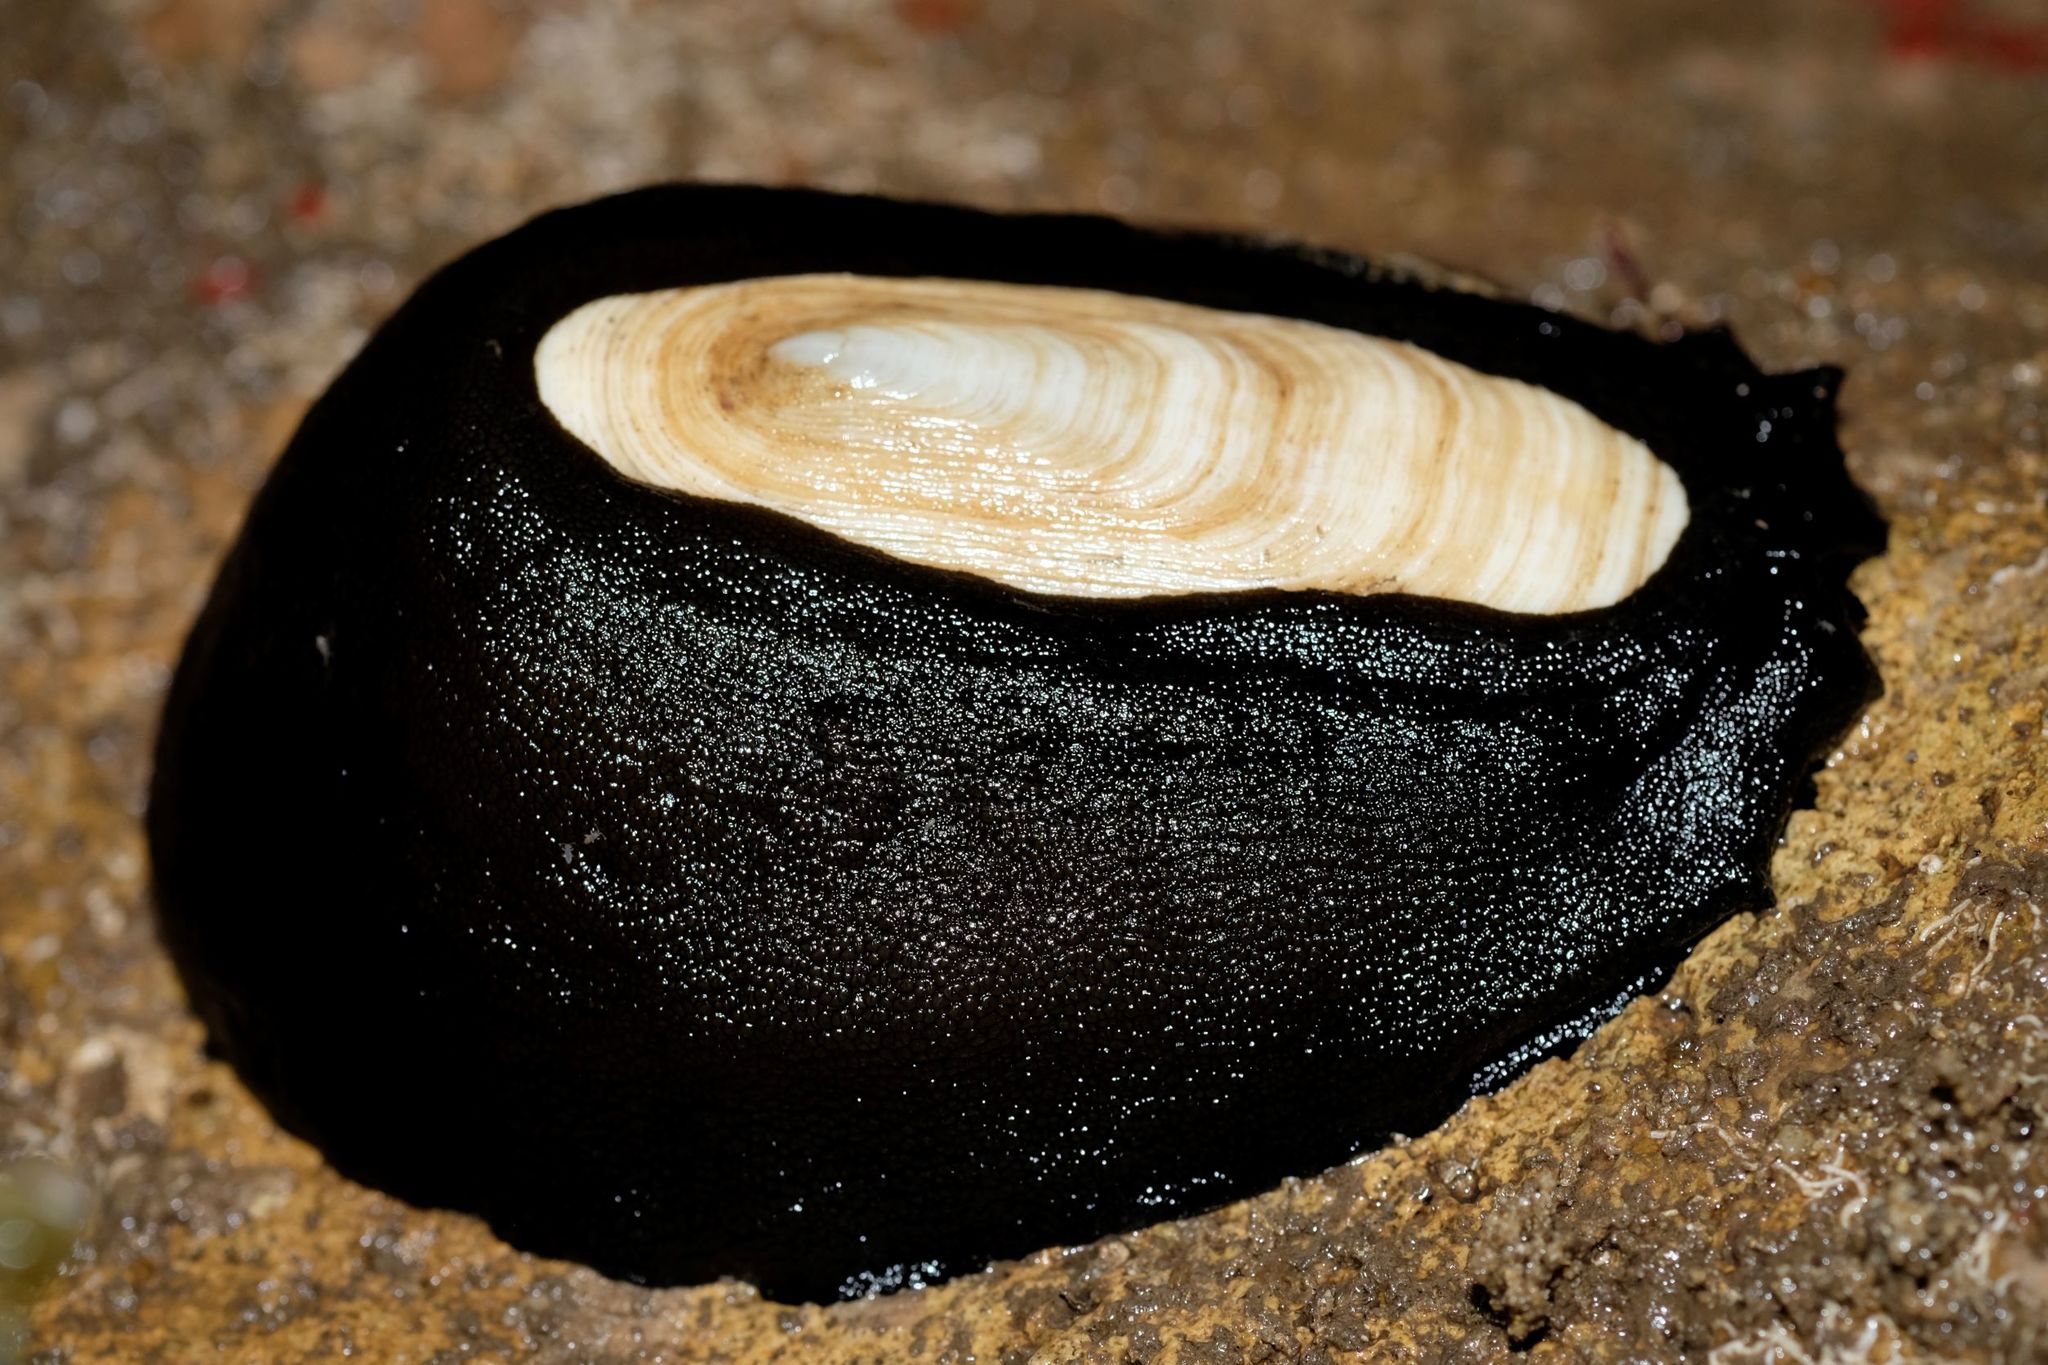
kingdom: Animalia
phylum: Mollusca
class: Gastropoda
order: Lepetellida
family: Fissurellidae
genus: Scutus
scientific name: Scutus antipodes
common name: Duckbill shell
